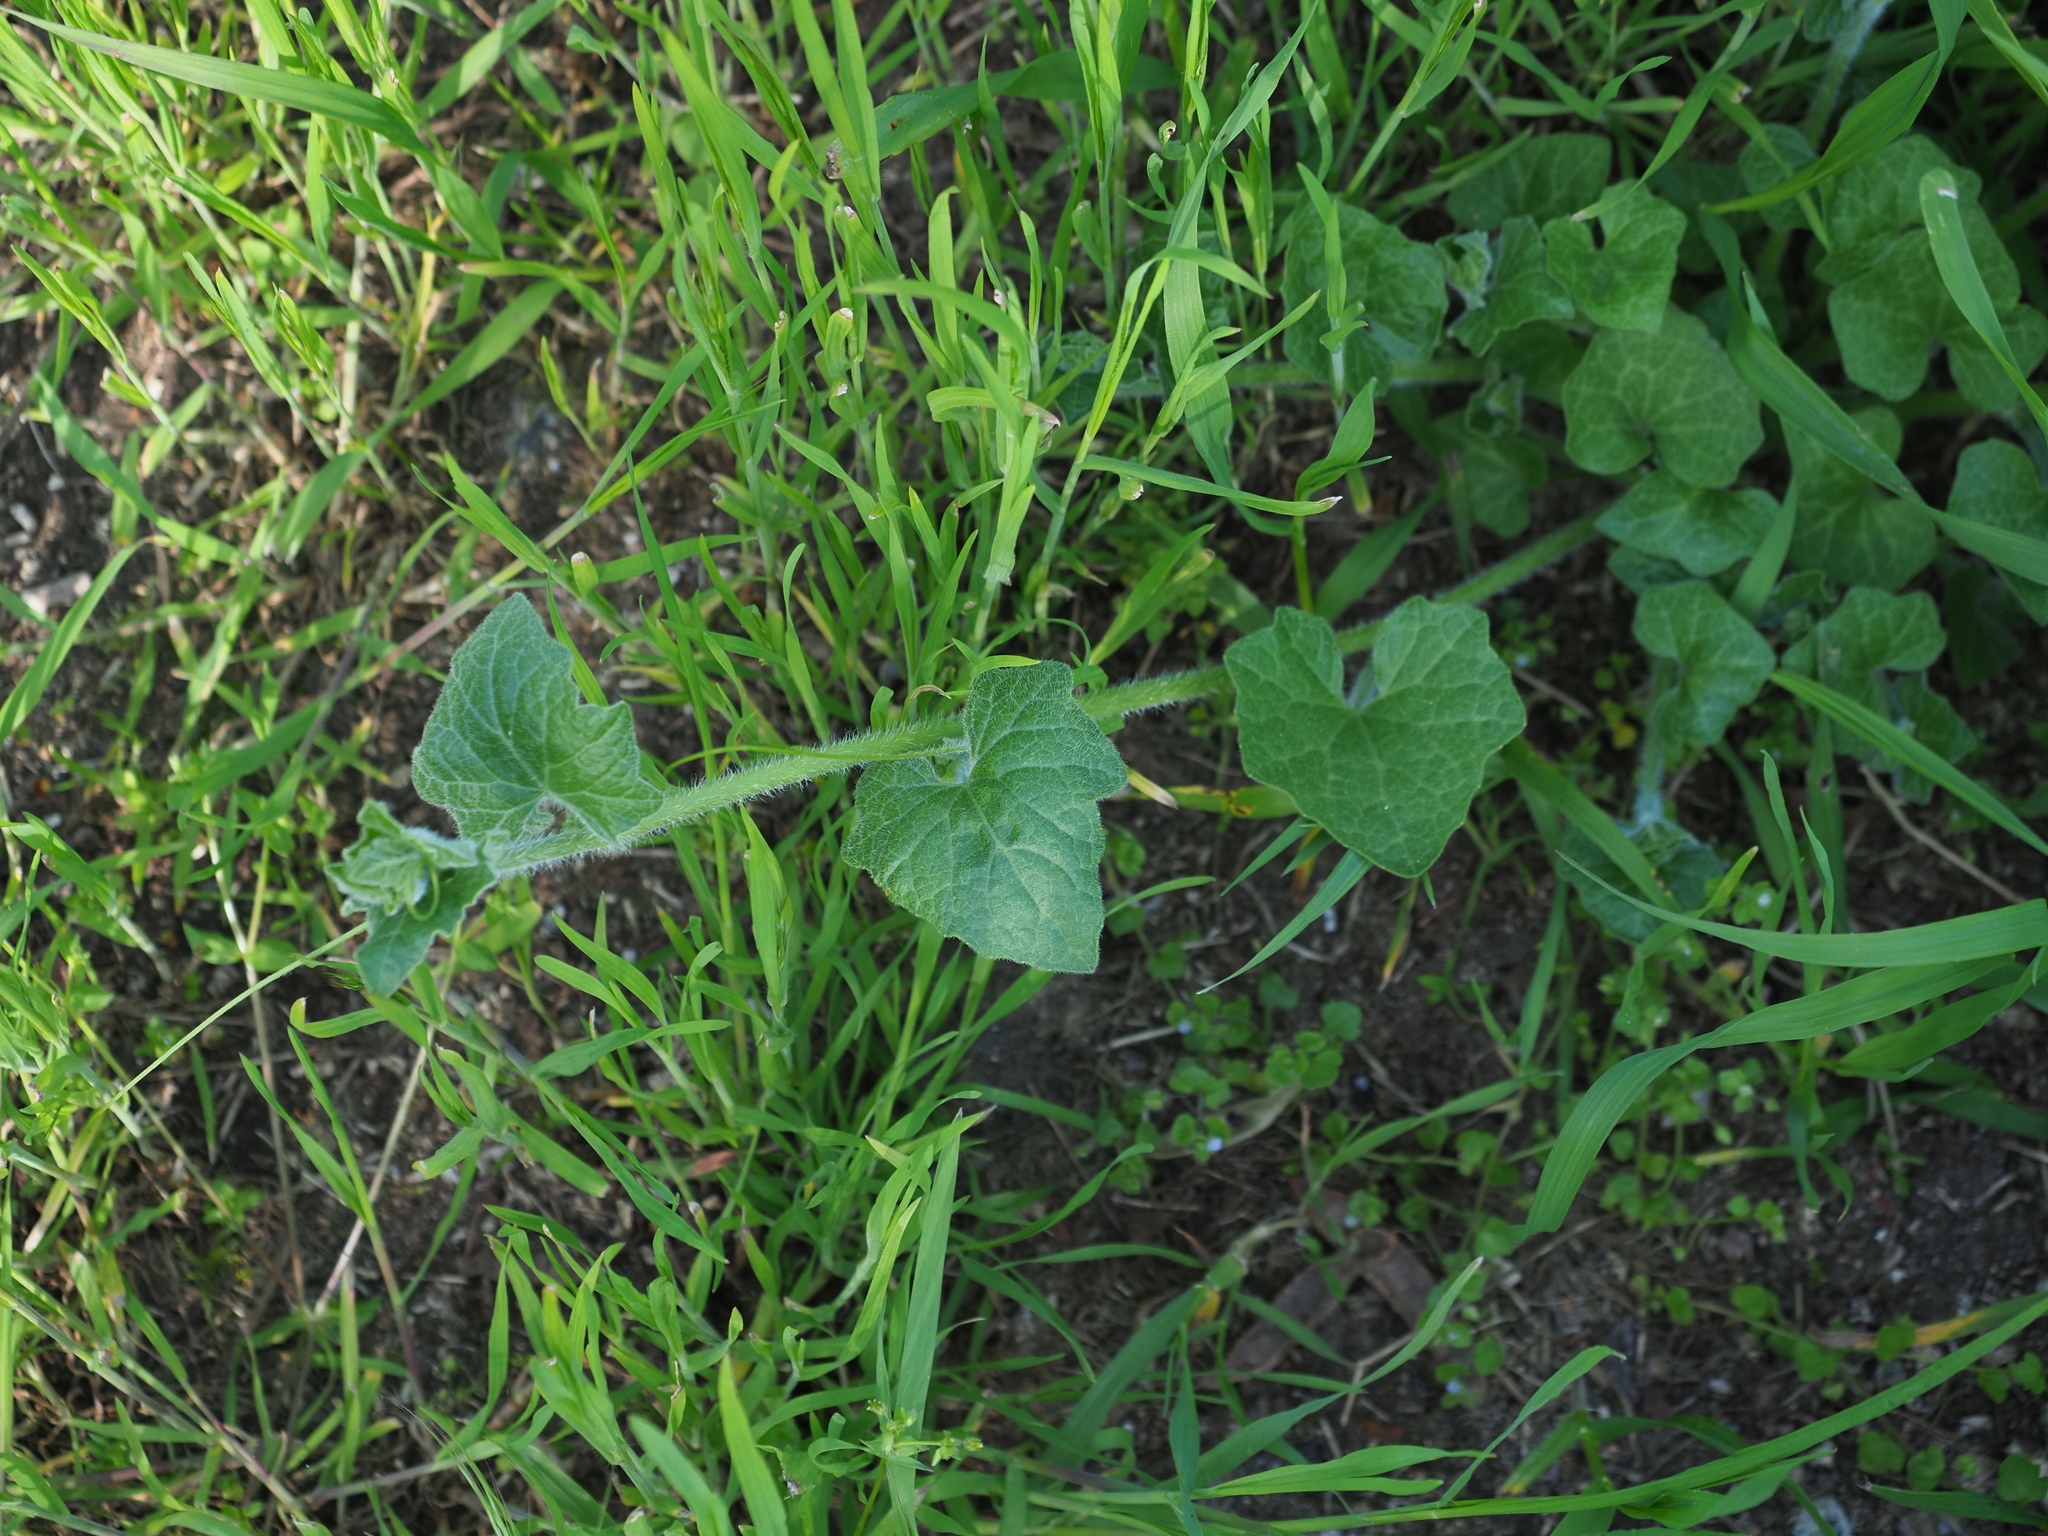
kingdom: Plantae
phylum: Tracheophyta
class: Magnoliopsida
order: Cucurbitales
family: Cucurbitaceae
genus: Bryonia
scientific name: Bryonia cretica
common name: Cretan bryony
